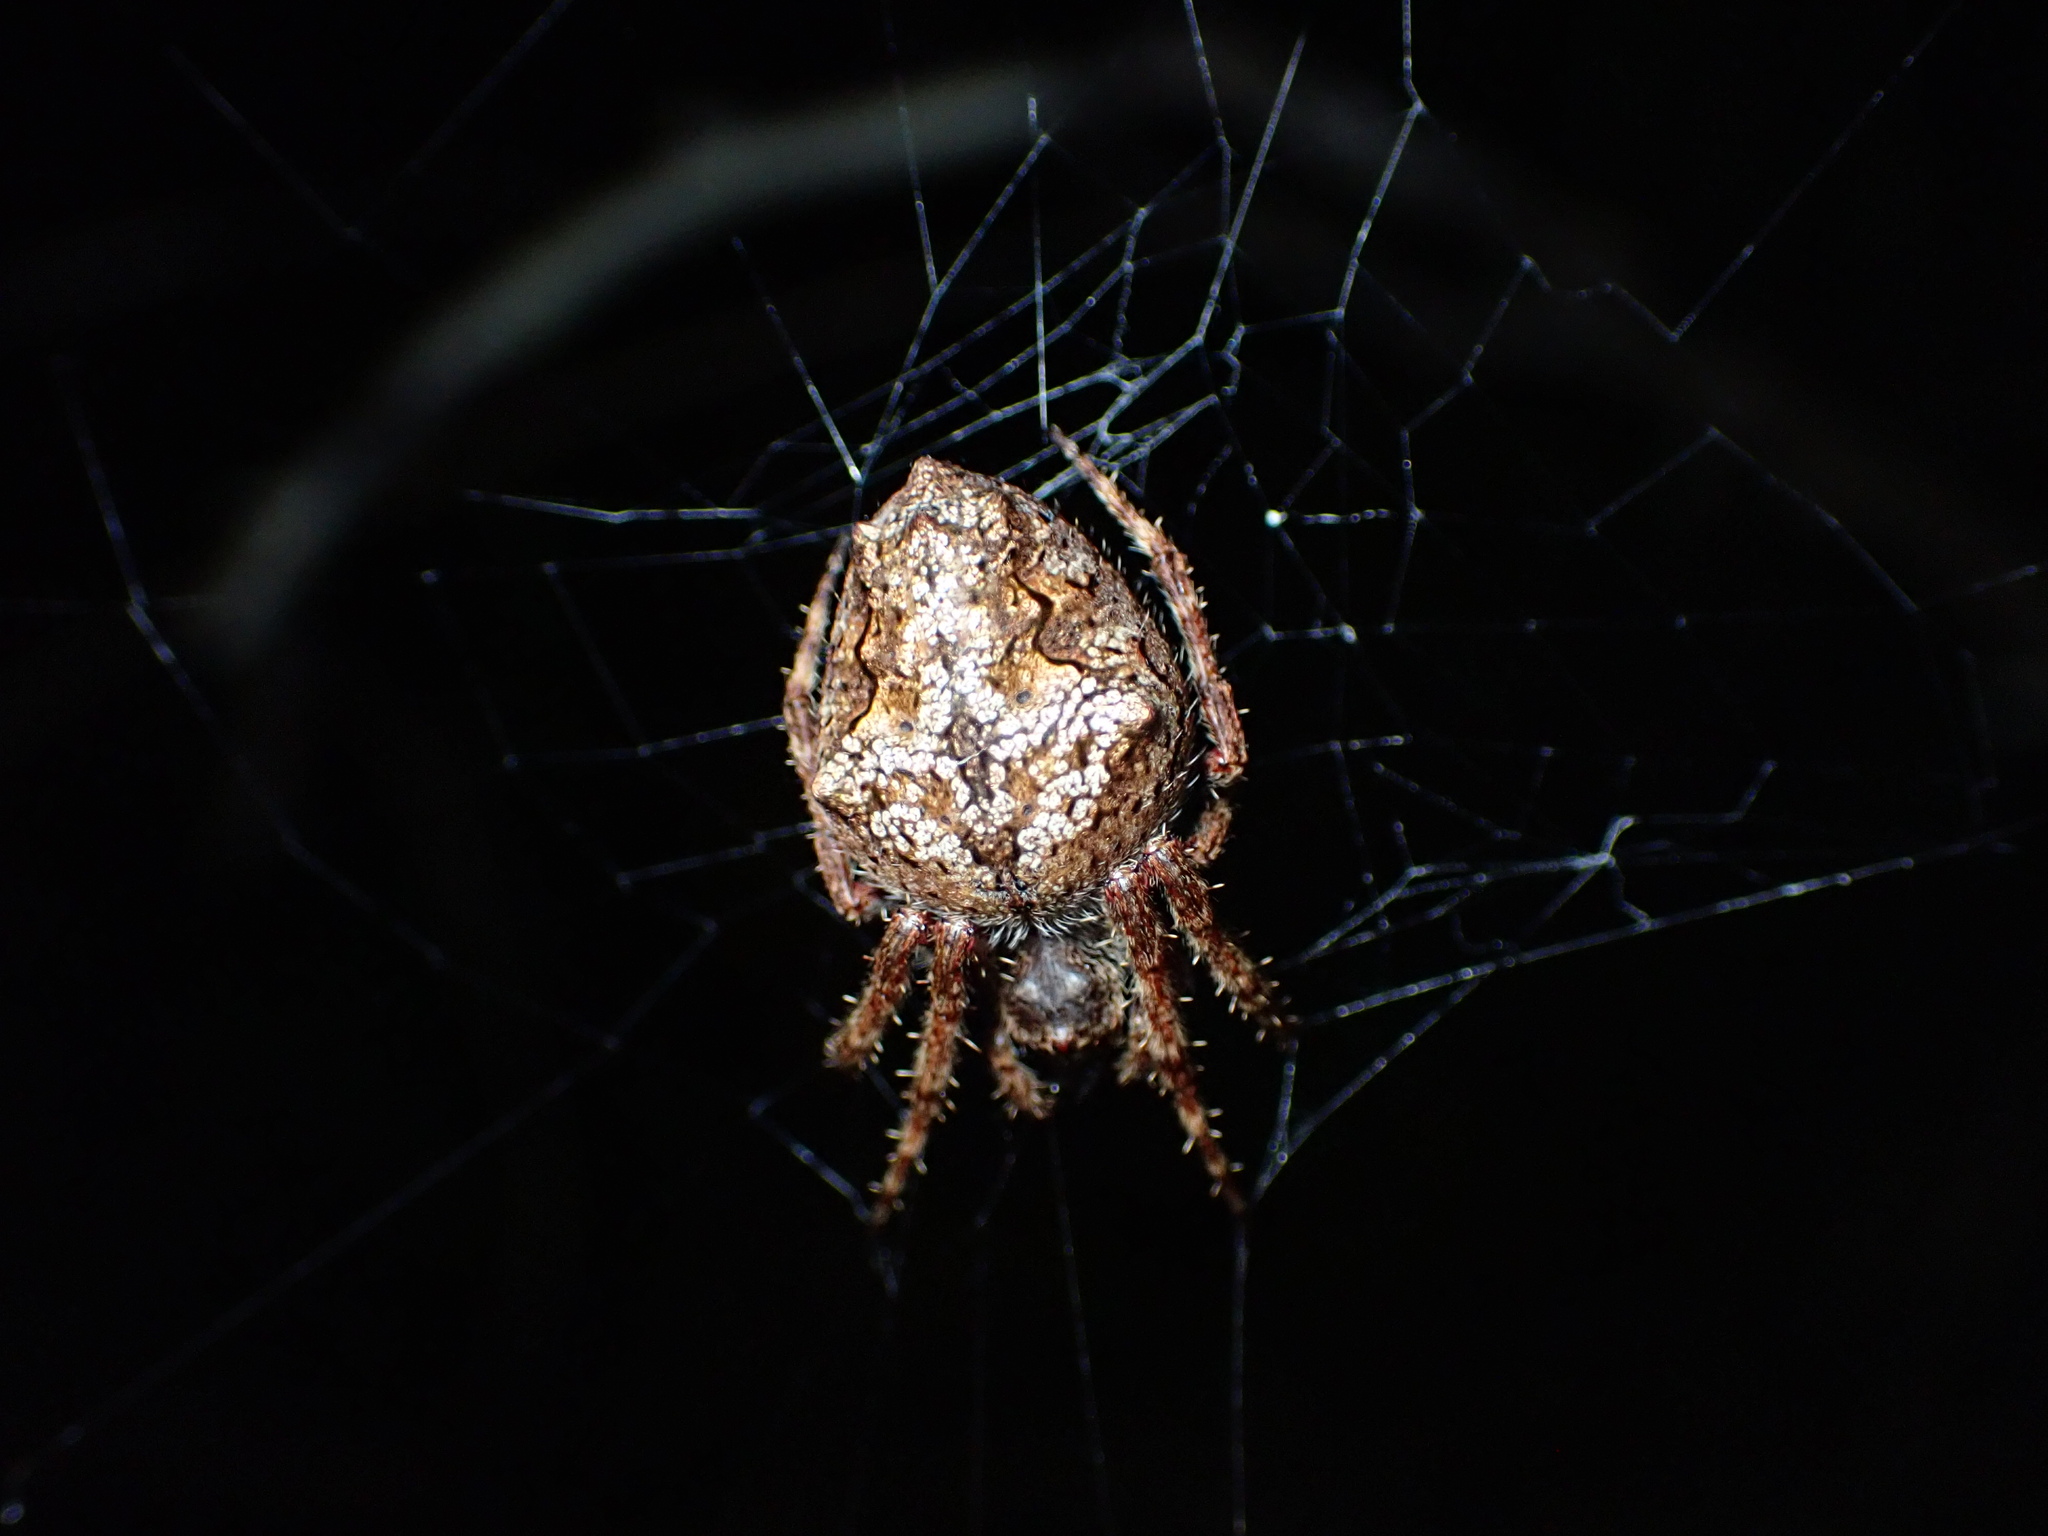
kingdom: Animalia
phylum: Arthropoda
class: Arachnida
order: Araneae
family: Araneidae
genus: Eriophora
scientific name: Eriophora pustulosa
